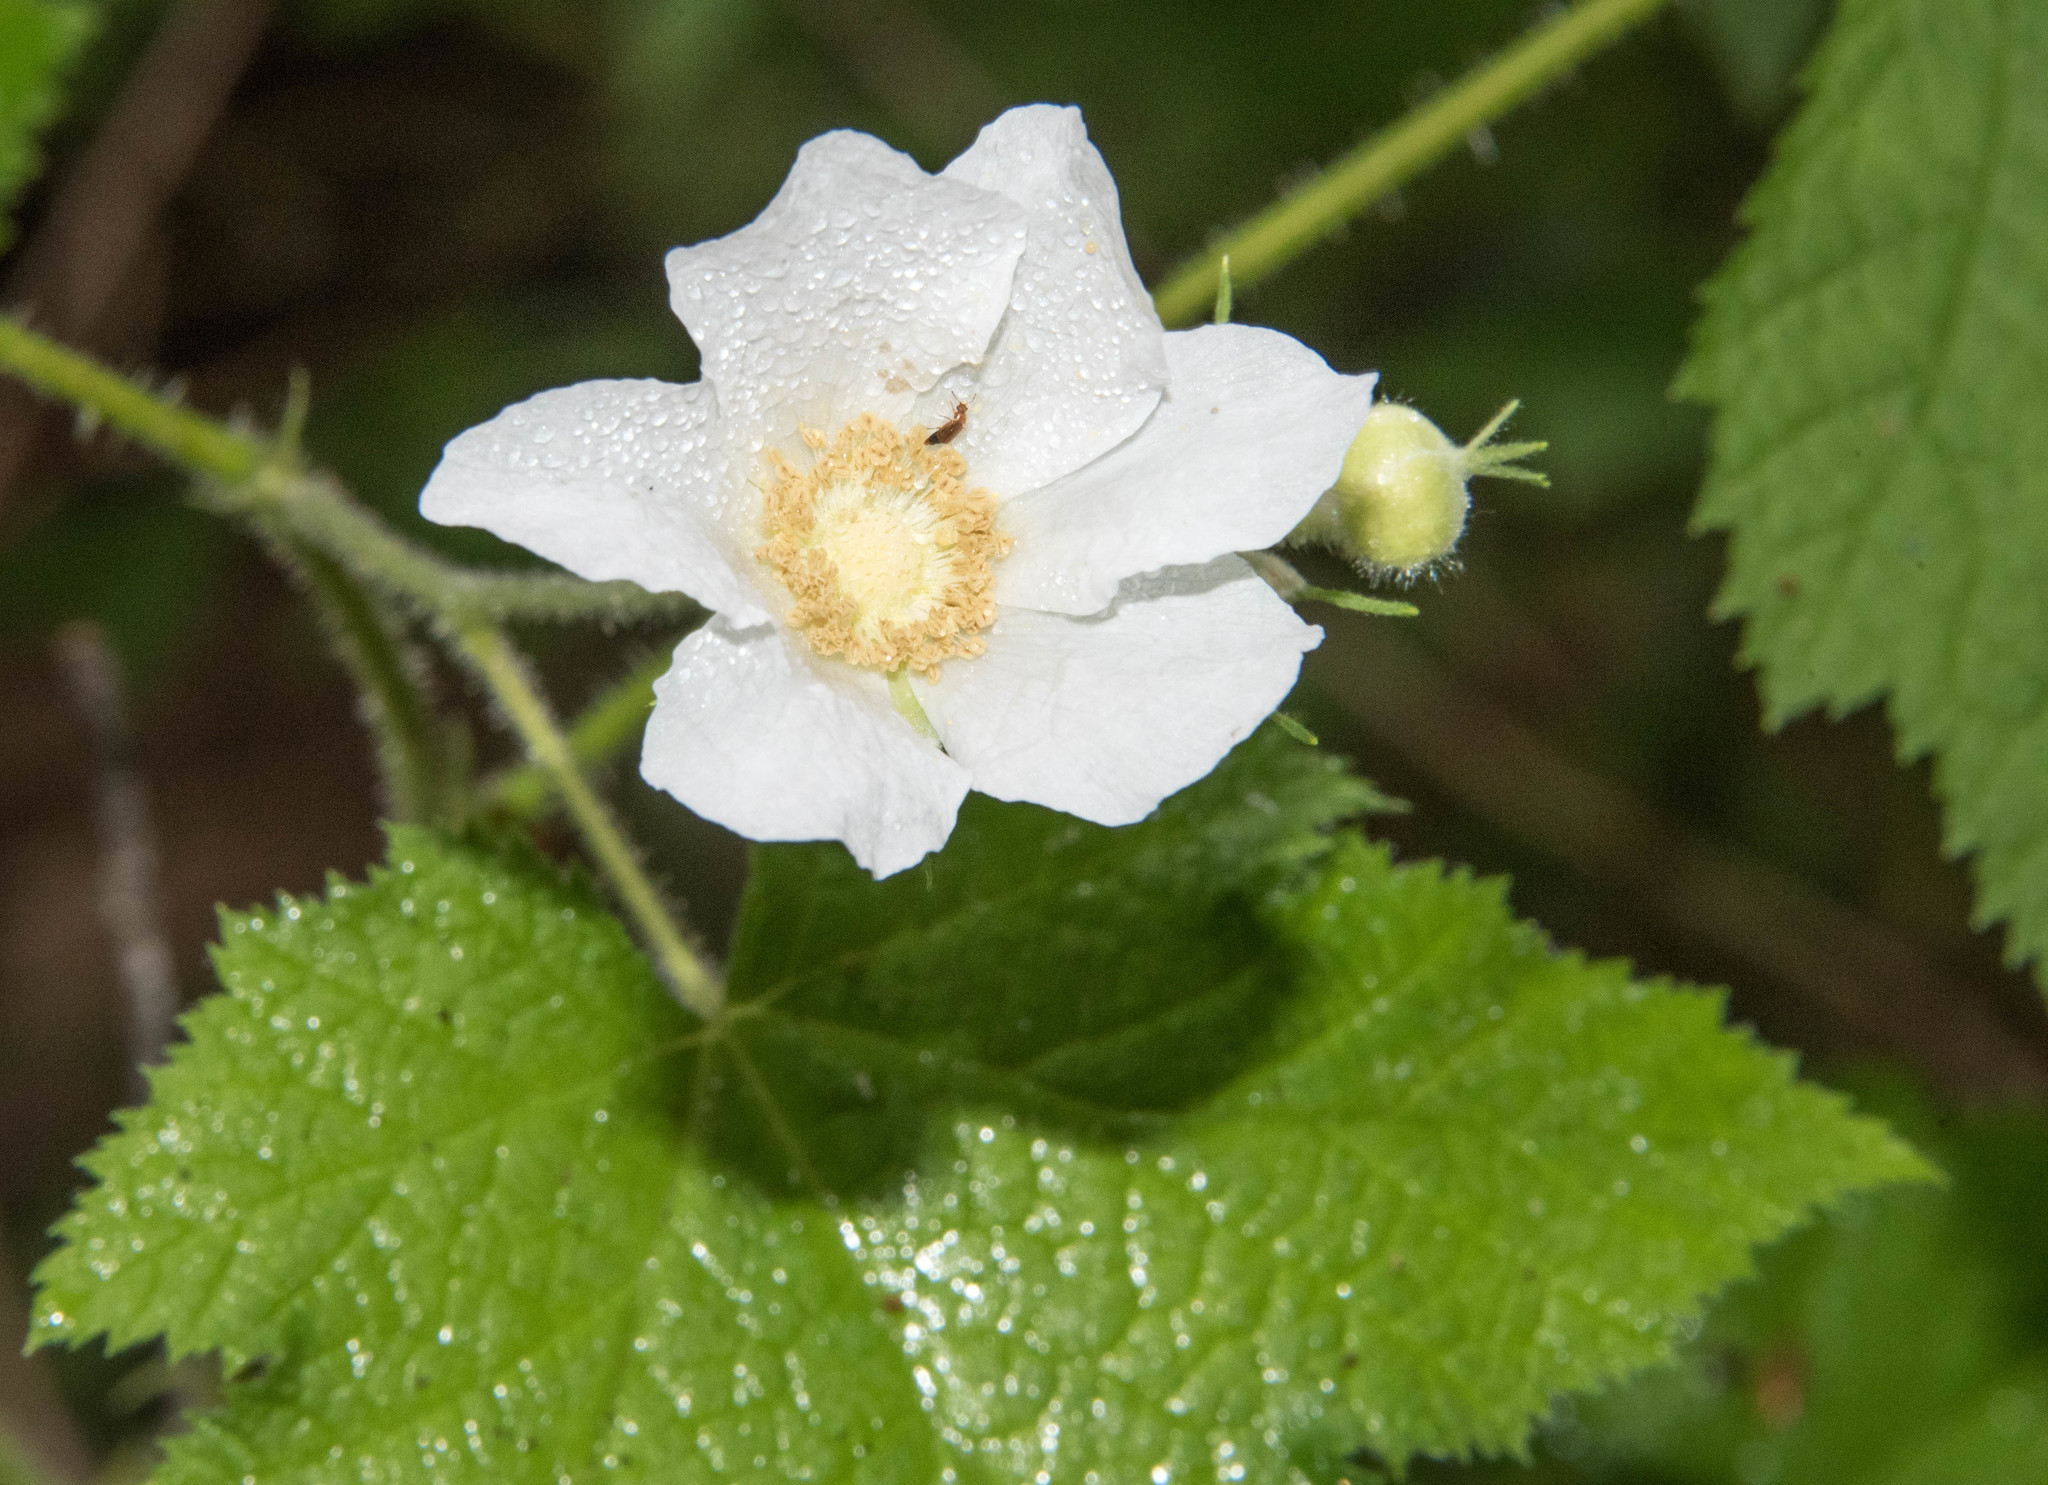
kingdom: Plantae
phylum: Tracheophyta
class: Magnoliopsida
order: Rosales
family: Rosaceae
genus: Rubus
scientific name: Rubus parviflorus
